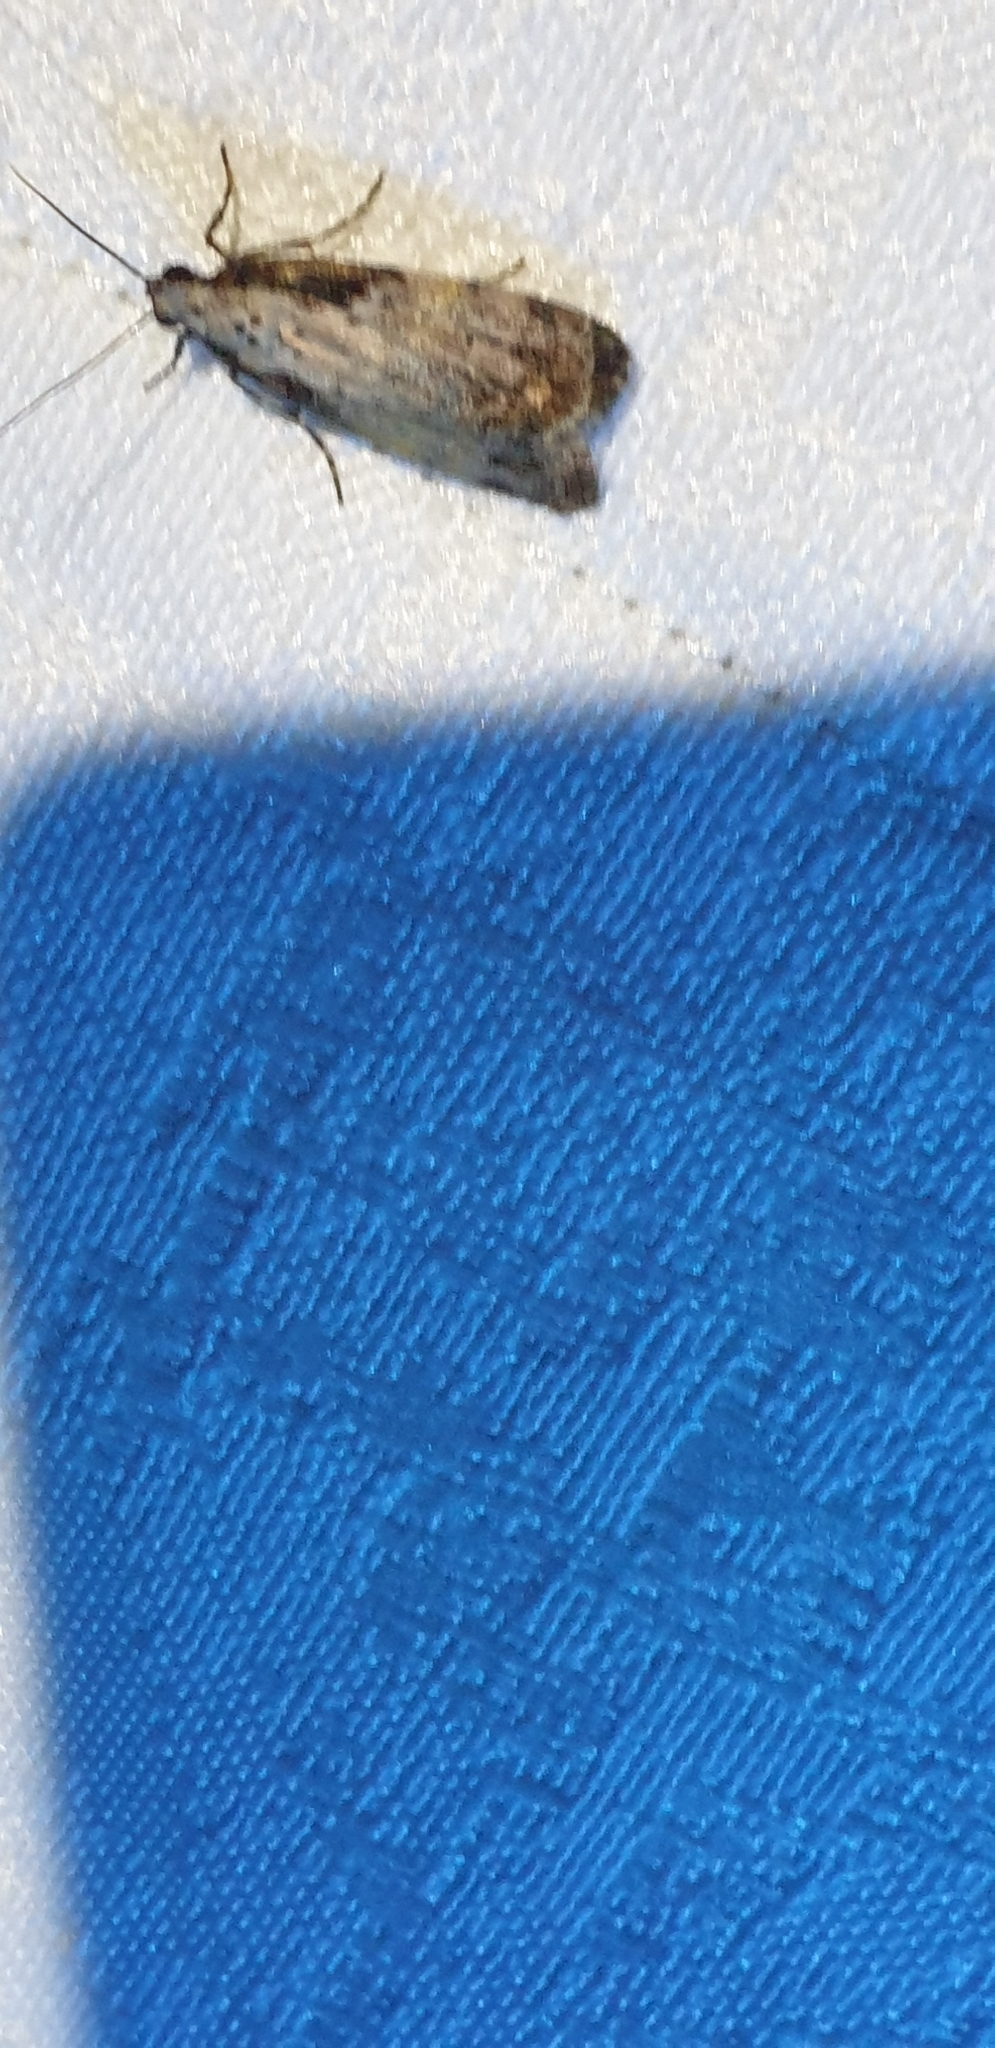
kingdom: Animalia
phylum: Arthropoda
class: Insecta
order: Lepidoptera
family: Erebidae
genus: Digama
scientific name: Digama Sommeria marmorea
